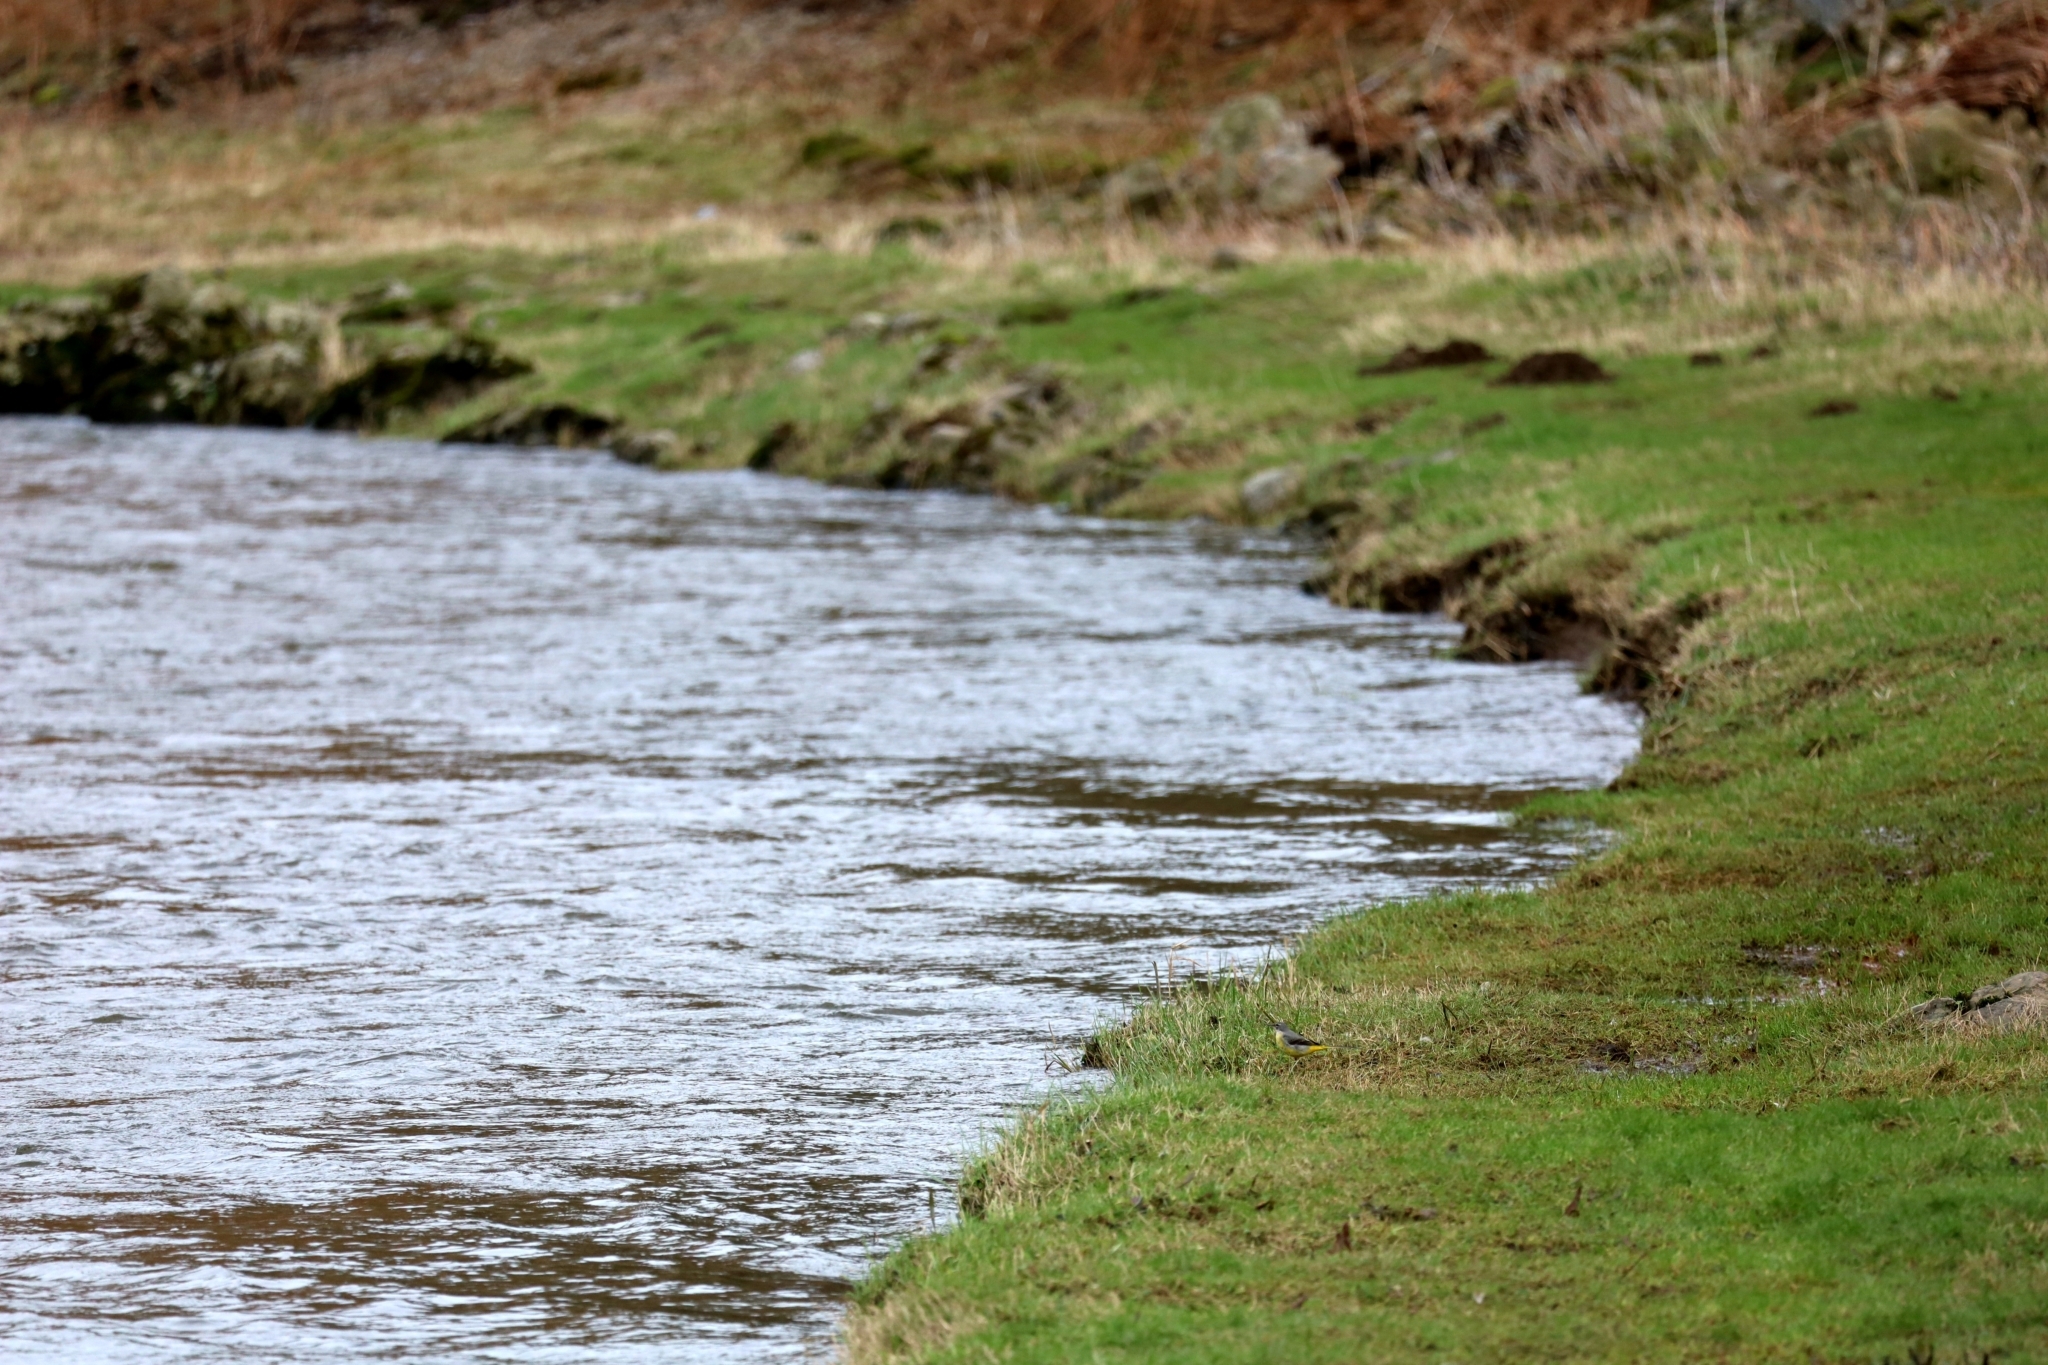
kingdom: Animalia
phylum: Chordata
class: Aves
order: Passeriformes
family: Motacillidae
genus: Motacilla
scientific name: Motacilla cinerea
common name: Grey wagtail
